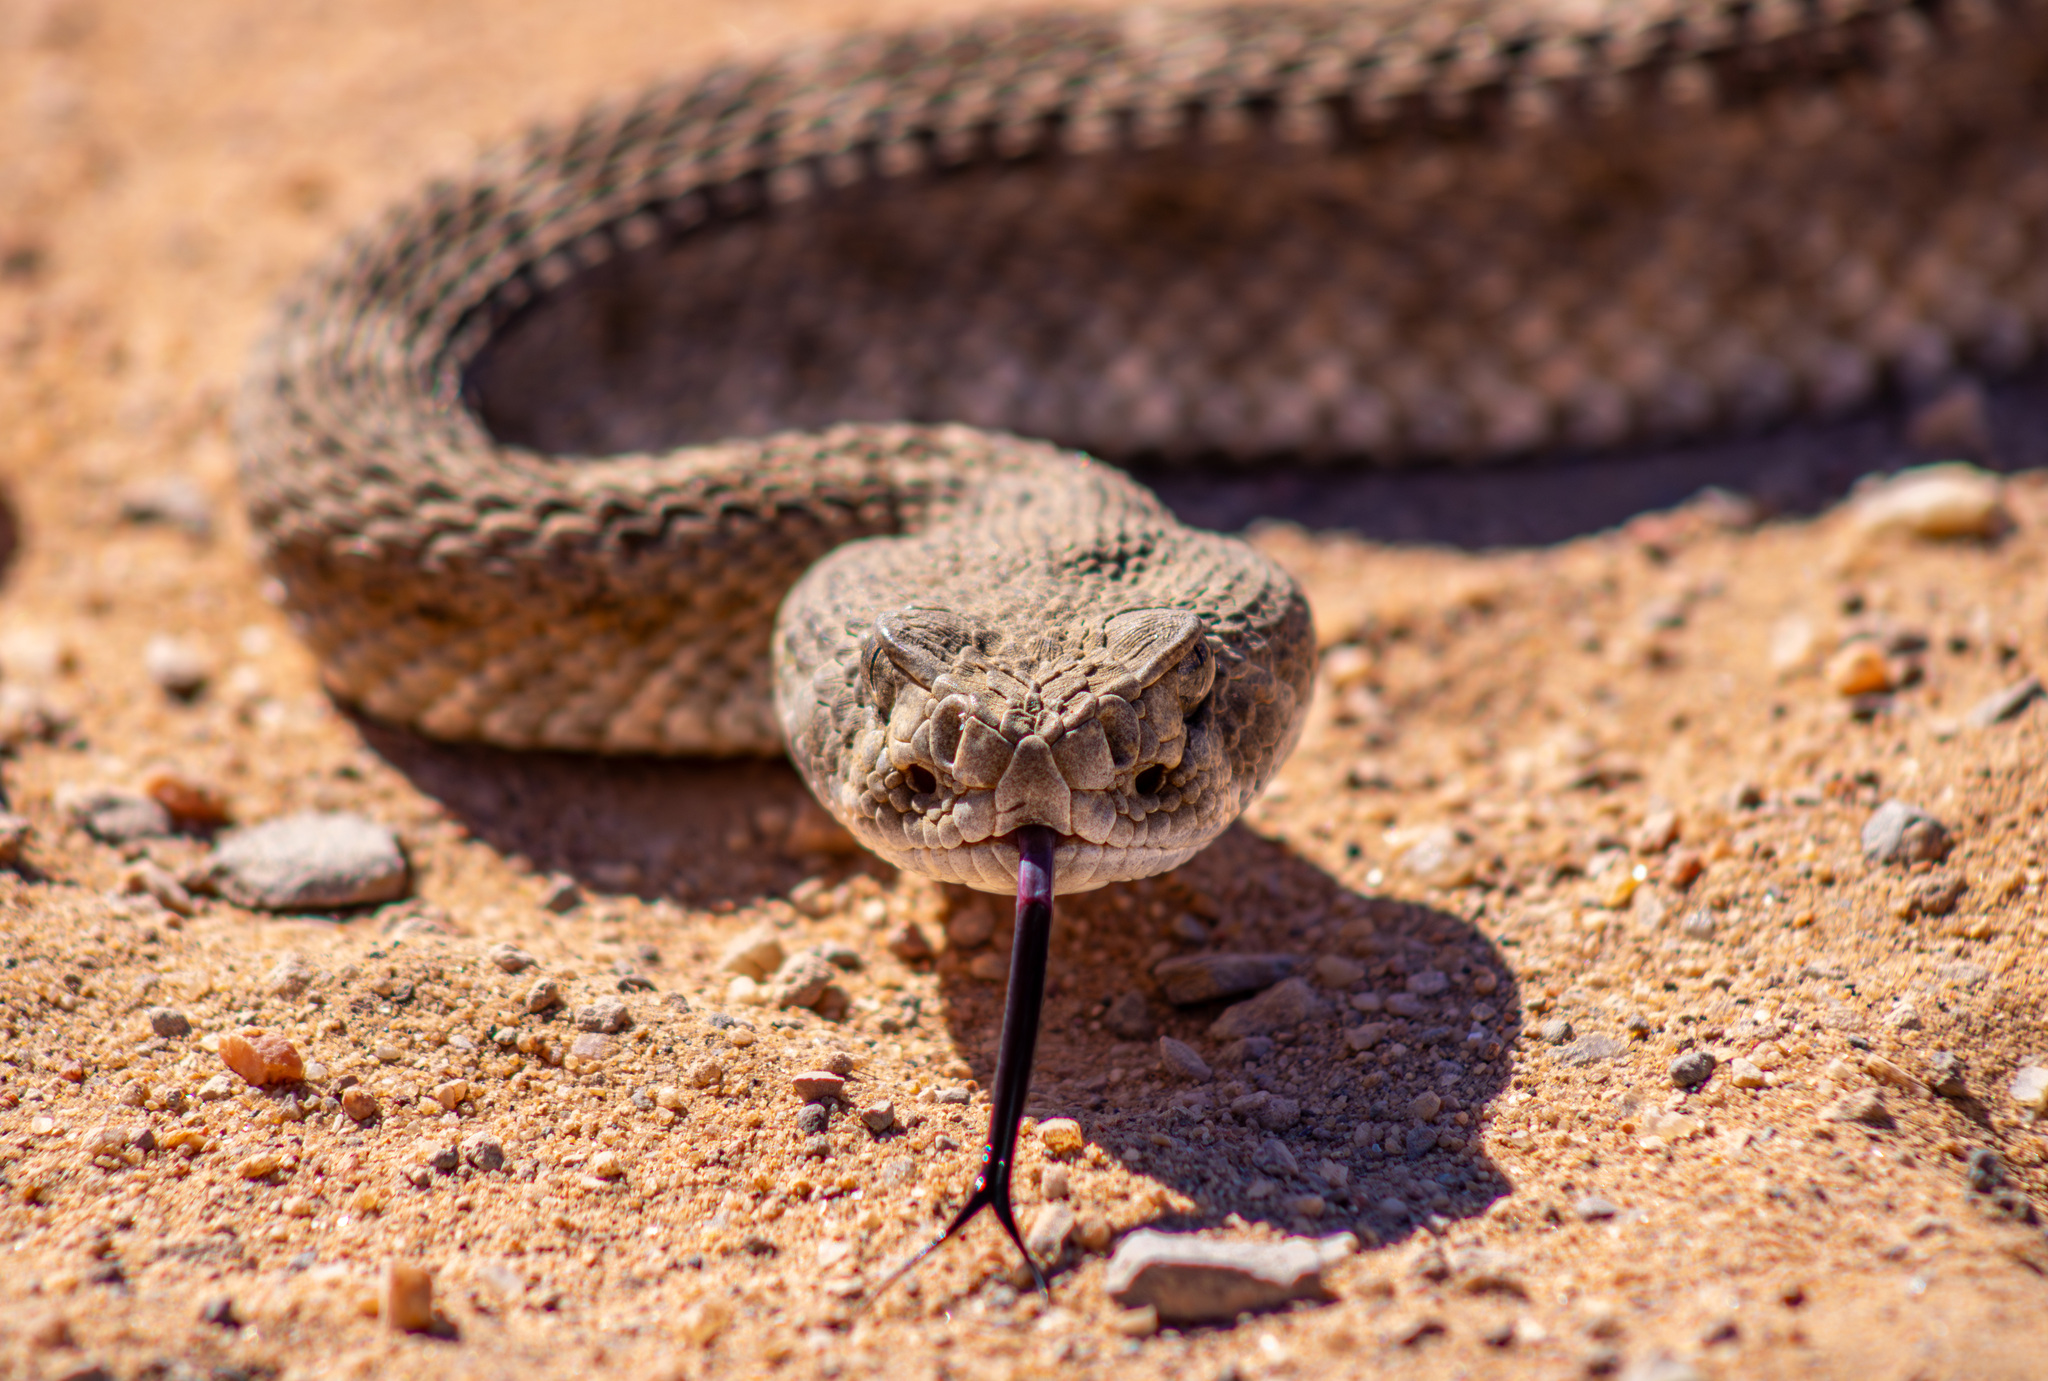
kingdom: Animalia
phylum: Chordata
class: Squamata
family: Viperidae
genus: Crotalus
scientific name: Crotalus atrox
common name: Western diamond-backed rattlesnake
